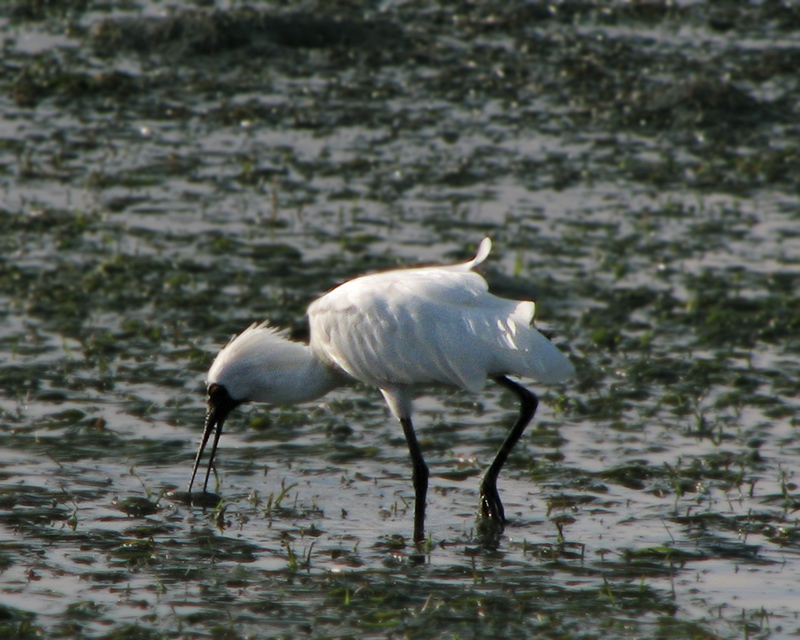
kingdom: Animalia
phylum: Chordata
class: Aves
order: Pelecaniformes
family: Threskiornithidae
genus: Platalea
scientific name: Platalea regia
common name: Royal spoonbill
